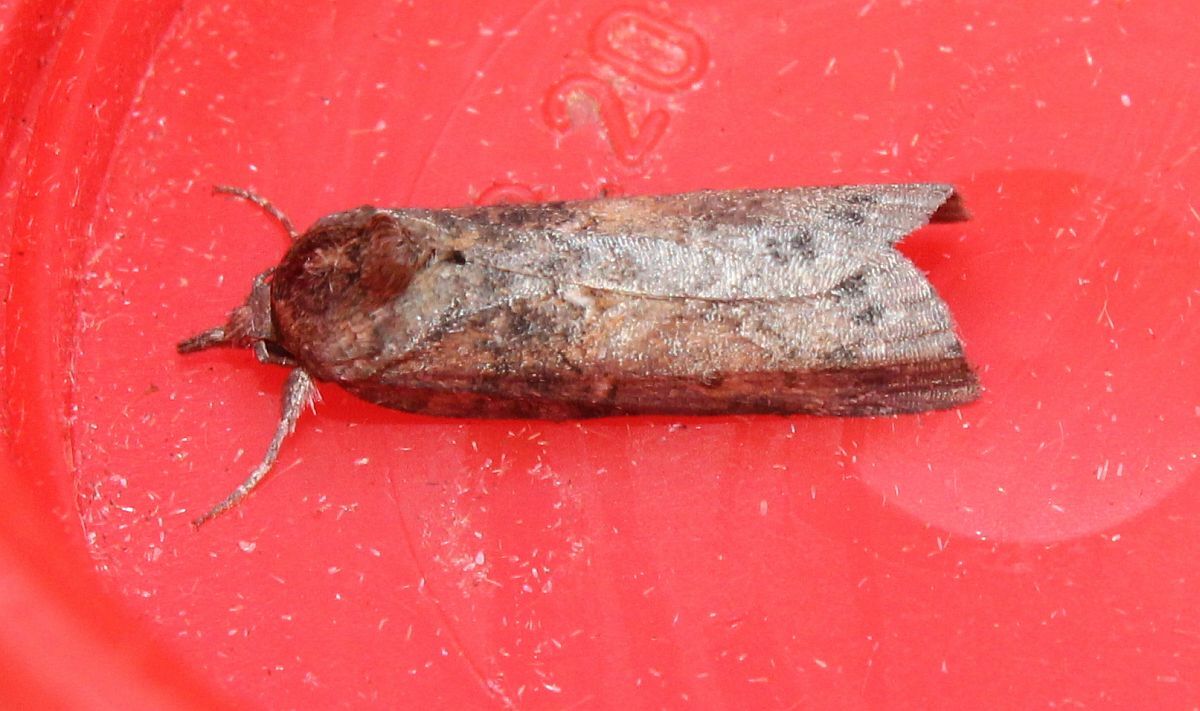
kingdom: Animalia
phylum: Arthropoda
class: Insecta
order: Lepidoptera
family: Nolidae
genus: Nycteola
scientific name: Nycteola revayana
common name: Oak nycteoline
